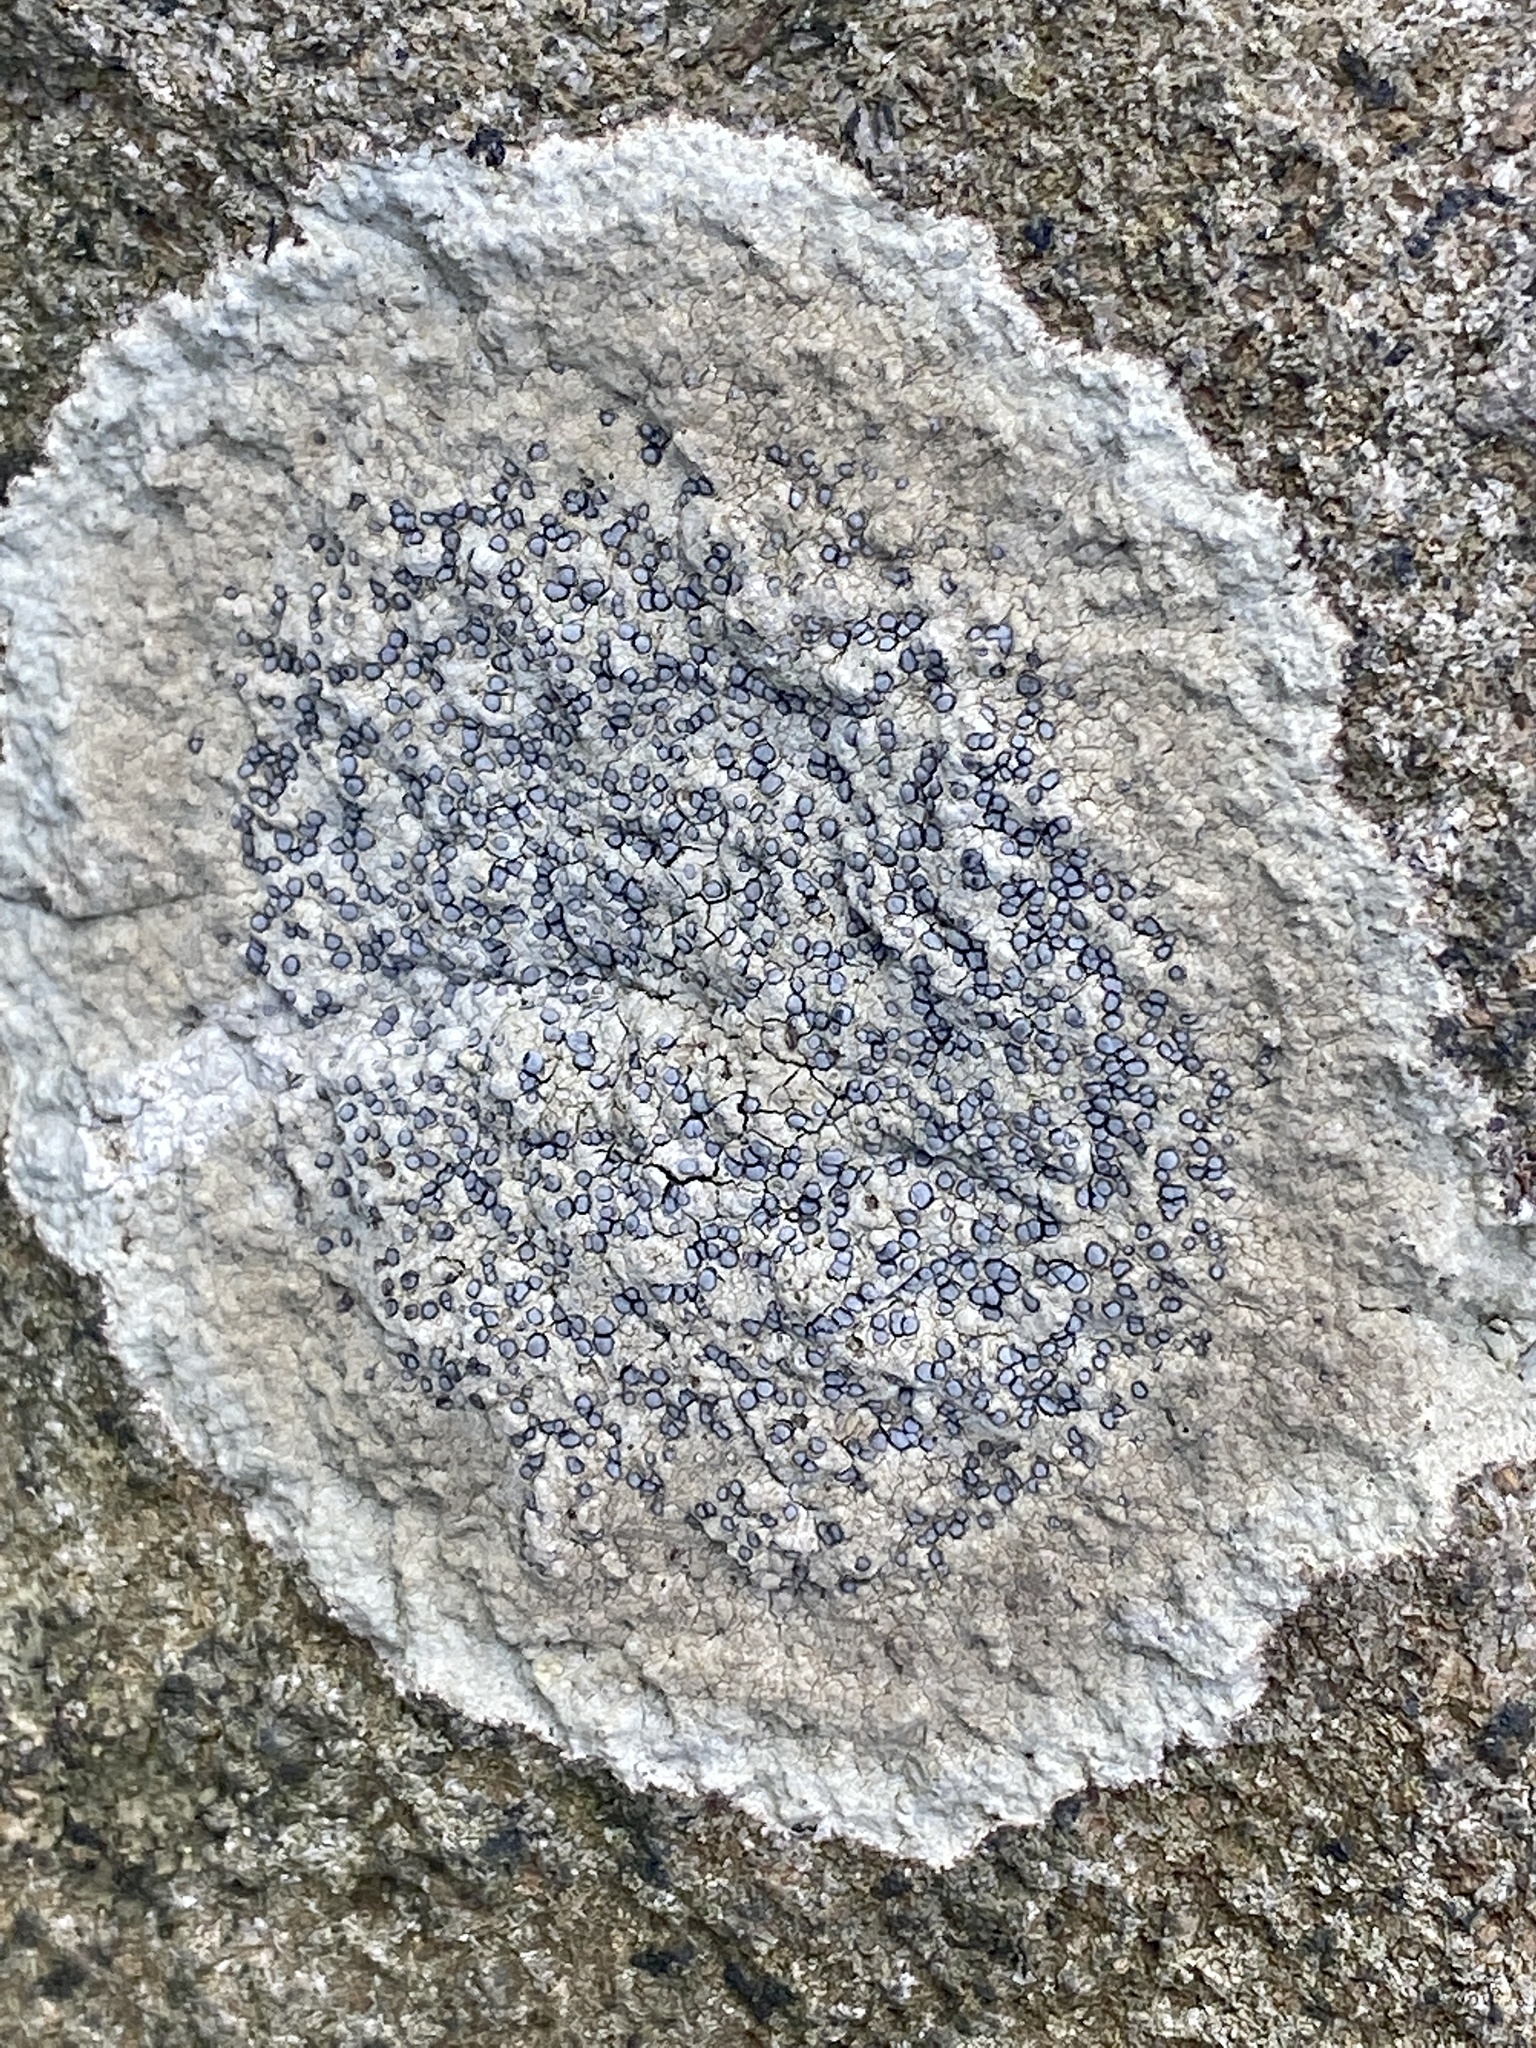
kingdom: Fungi
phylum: Ascomycota
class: Lecanoromycetes
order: Lecideales
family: Lecideaceae
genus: Porpidia
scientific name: Porpidia albocaerulescens
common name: Smokey-eyed boulder lichen
